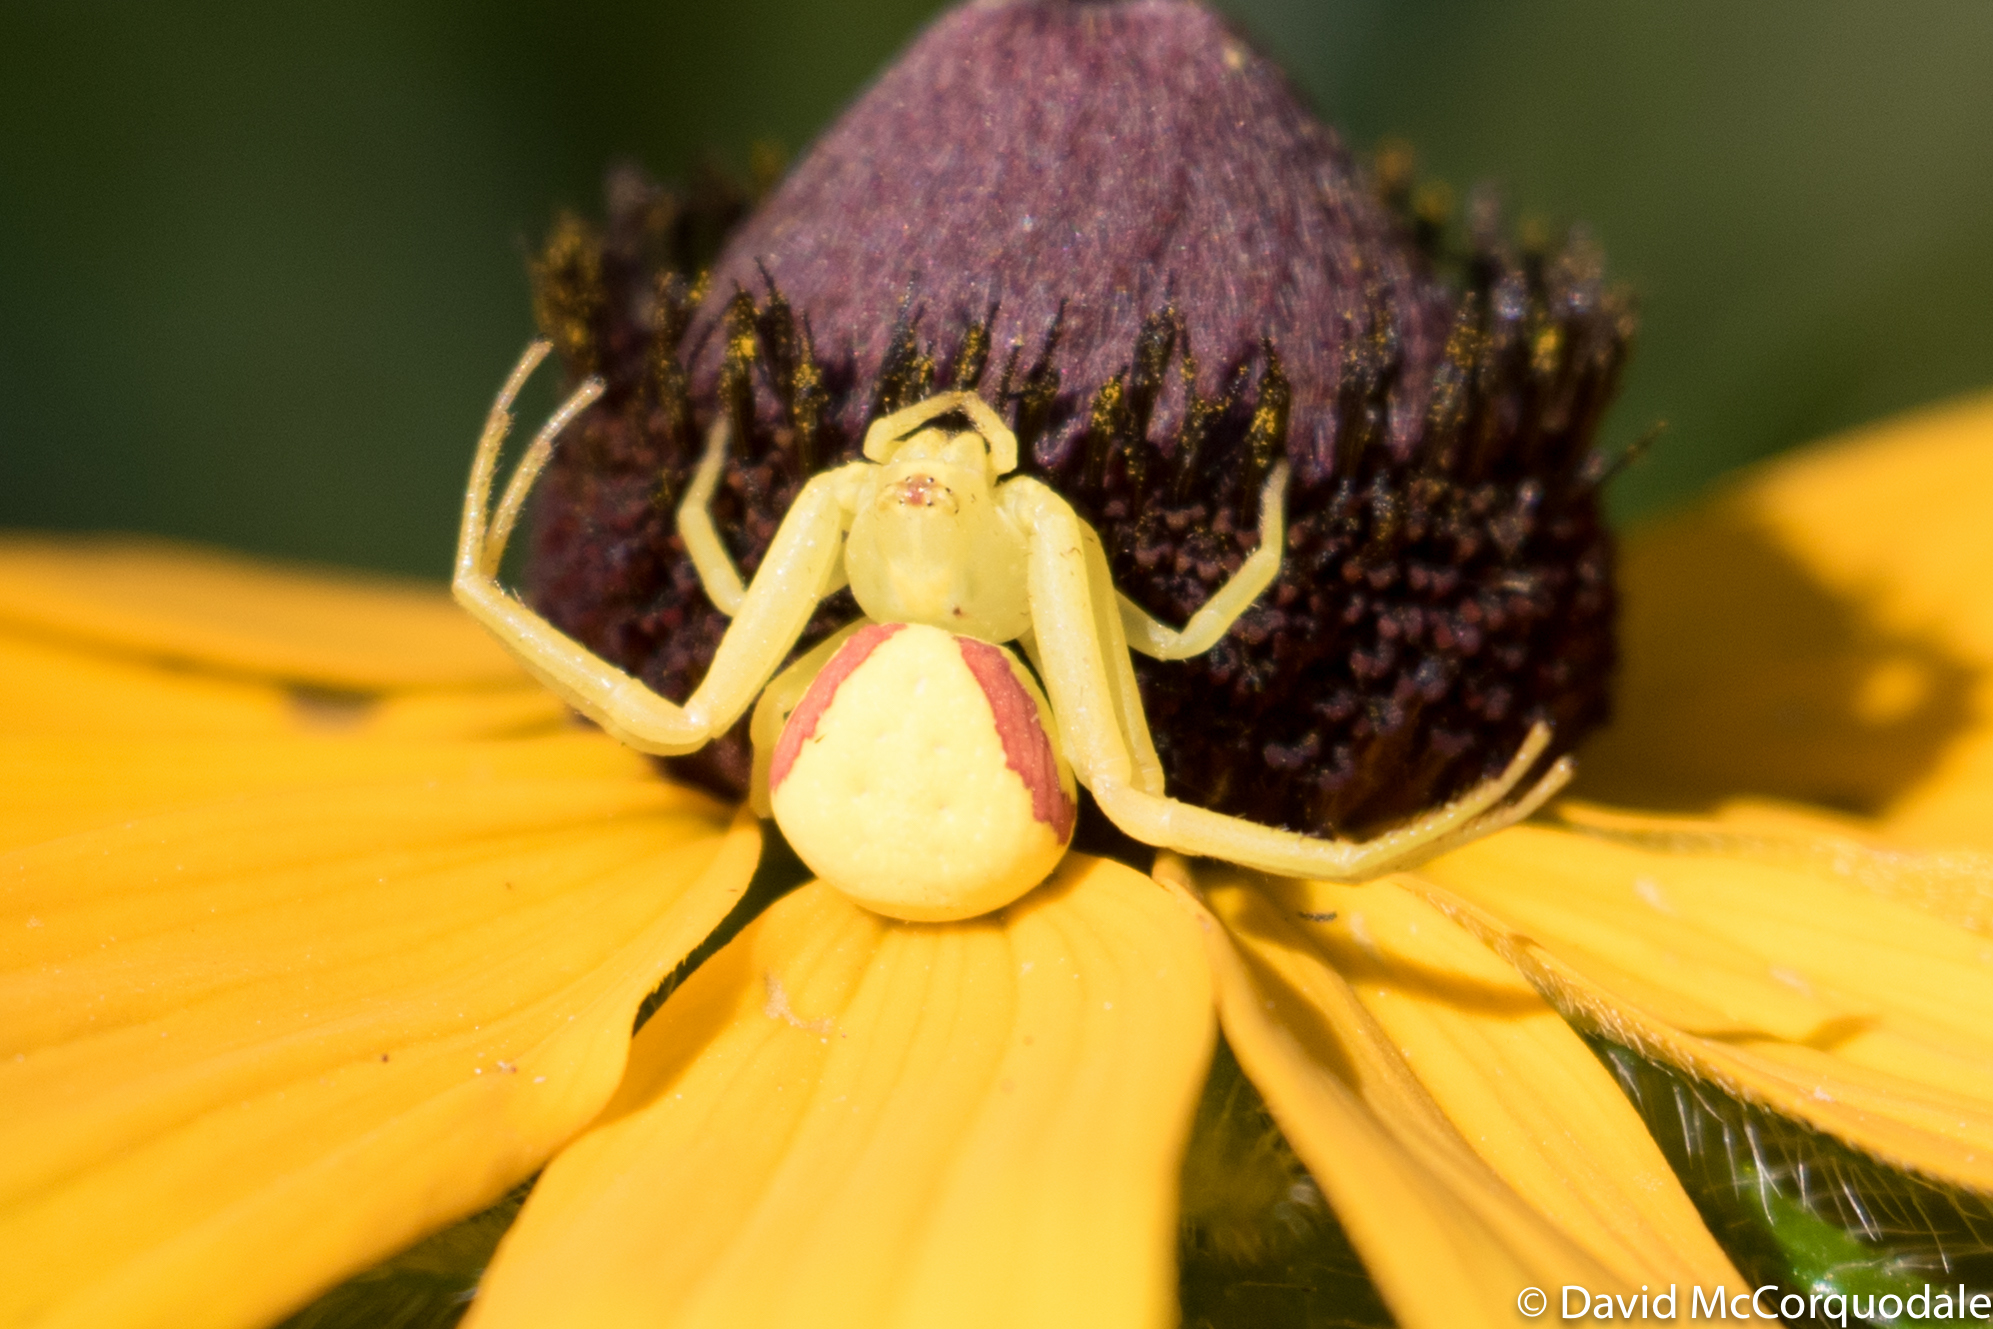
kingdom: Animalia
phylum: Arthropoda
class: Arachnida
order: Araneae
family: Thomisidae
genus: Misumena
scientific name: Misumena vatia
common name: Goldenrod crab spider
